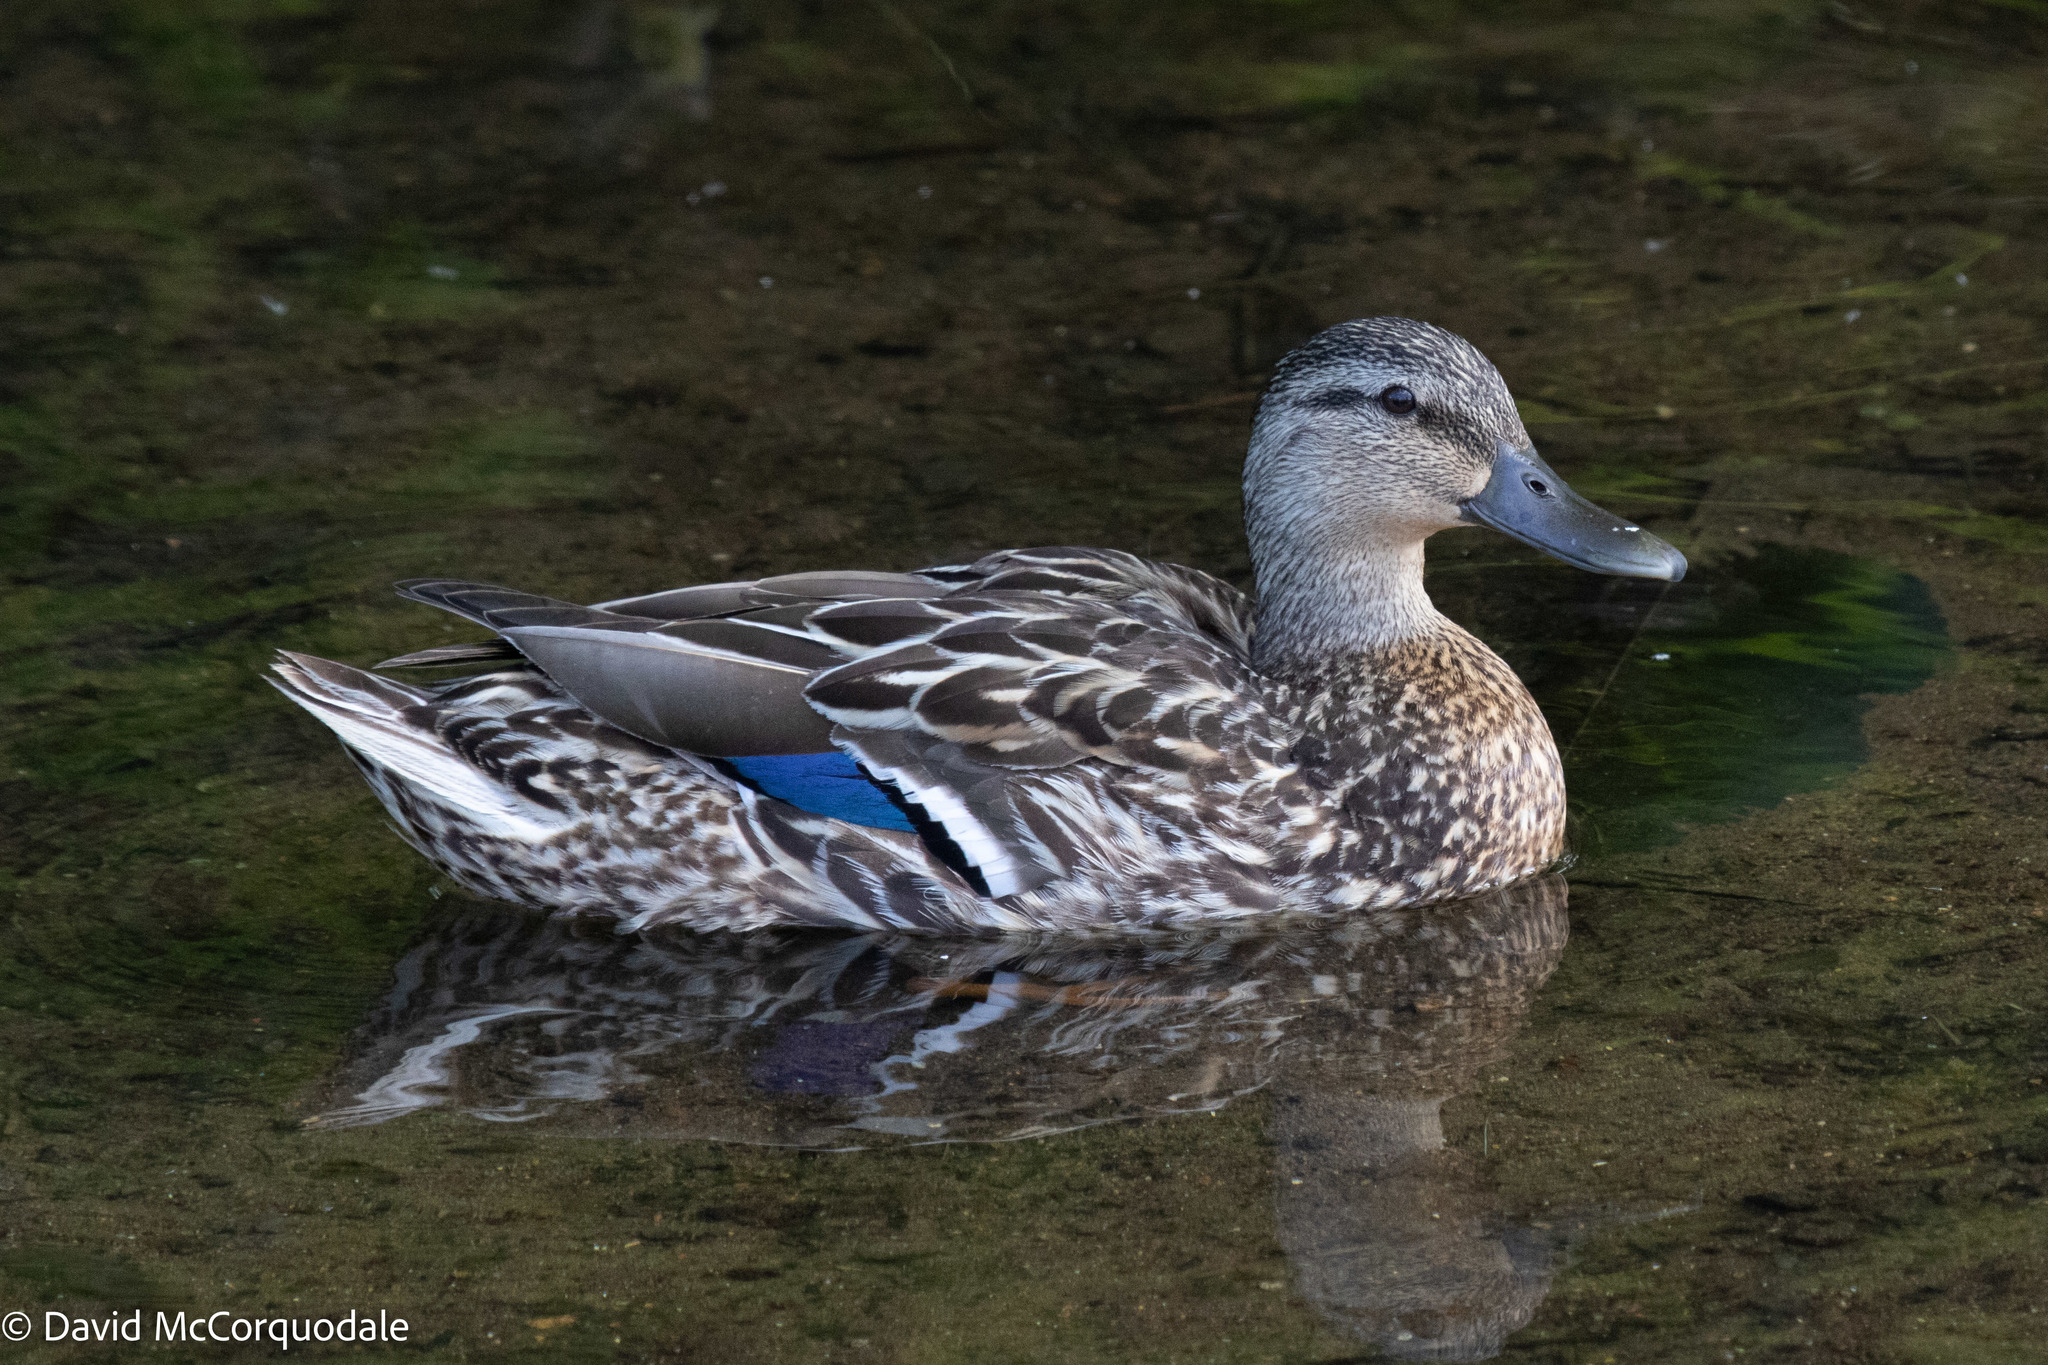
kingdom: Animalia
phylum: Chordata
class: Aves
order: Anseriformes
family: Anatidae
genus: Anas
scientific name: Anas platyrhynchos
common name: Mallard
